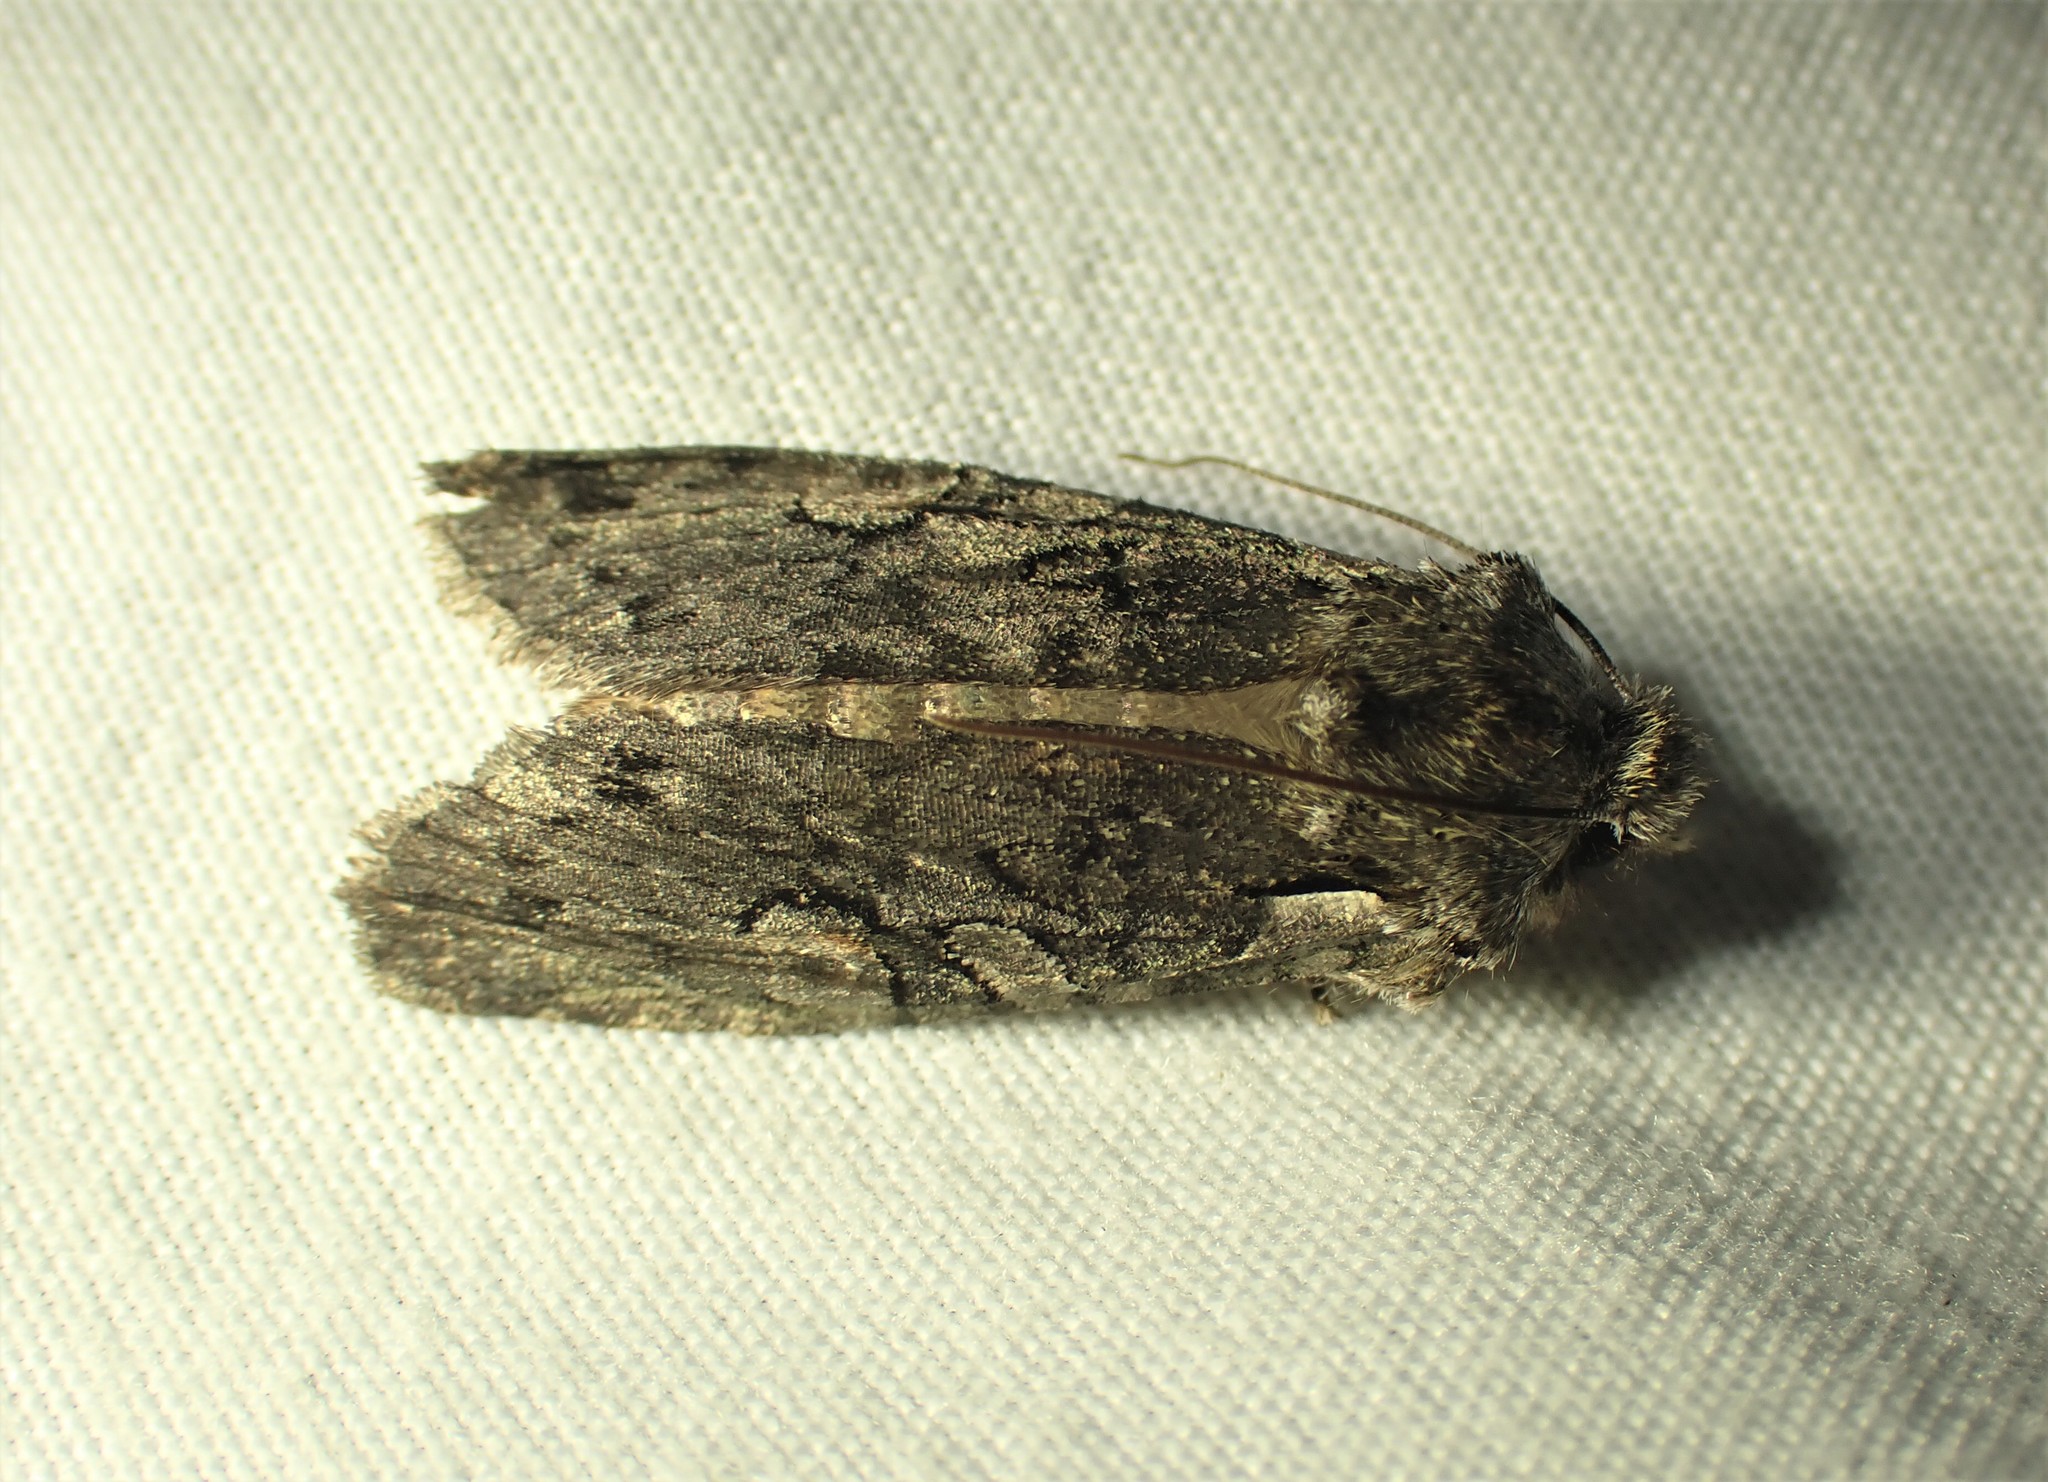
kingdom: Animalia
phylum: Arthropoda
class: Insecta
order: Lepidoptera
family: Noctuidae
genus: Lithophane
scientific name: Lithophane baileyi
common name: Bailey's pinion moth
